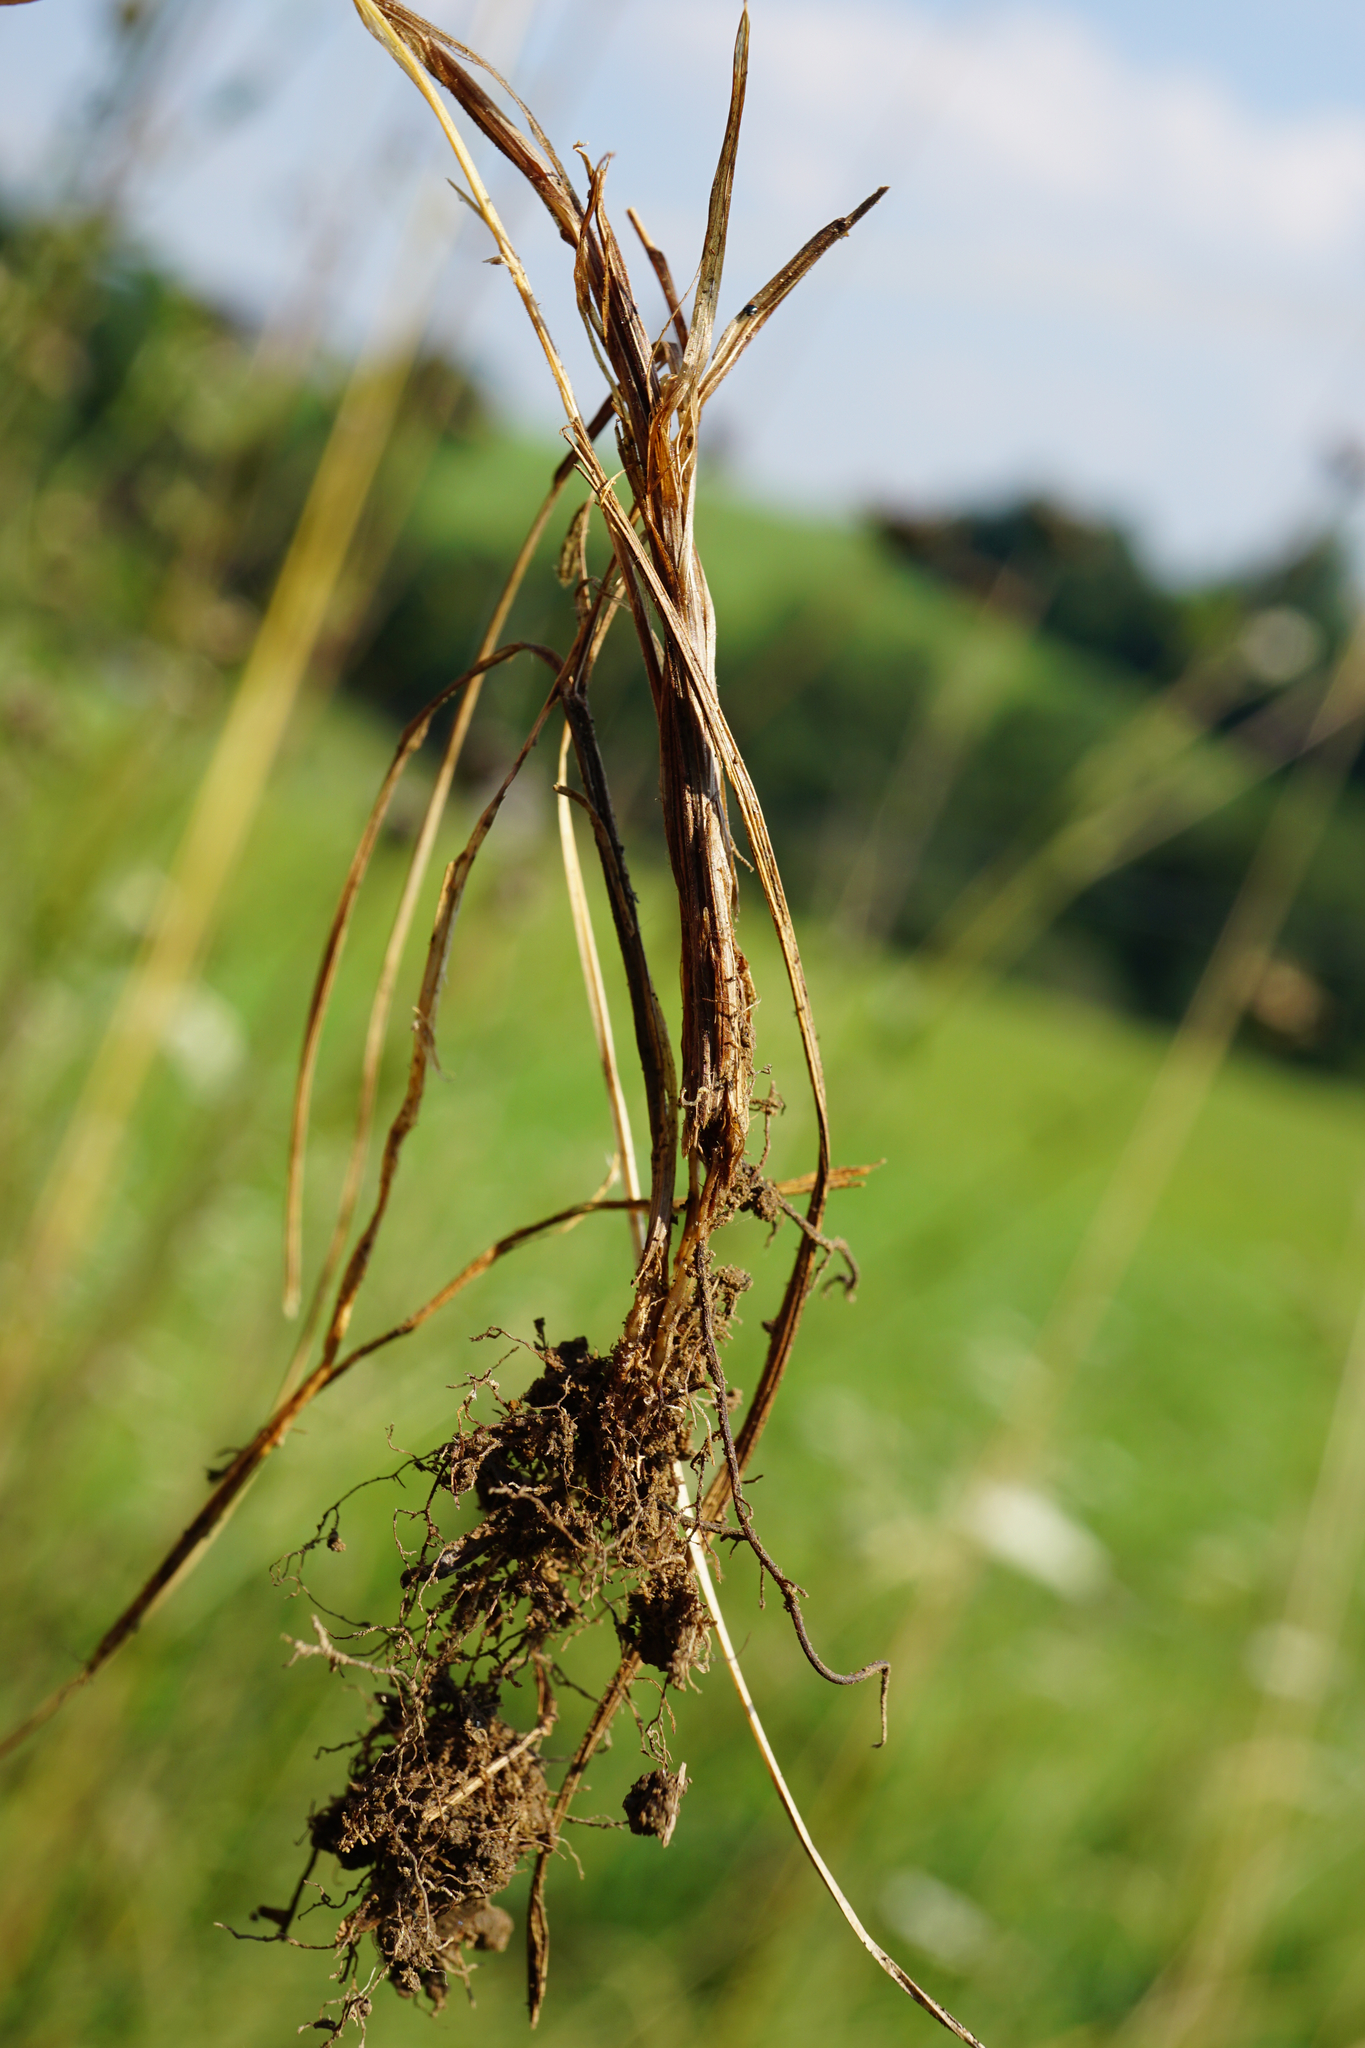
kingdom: Plantae
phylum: Tracheophyta
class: Liliopsida
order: Poales
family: Poaceae
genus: Festuca
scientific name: Festuca rubra
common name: Red fescue
